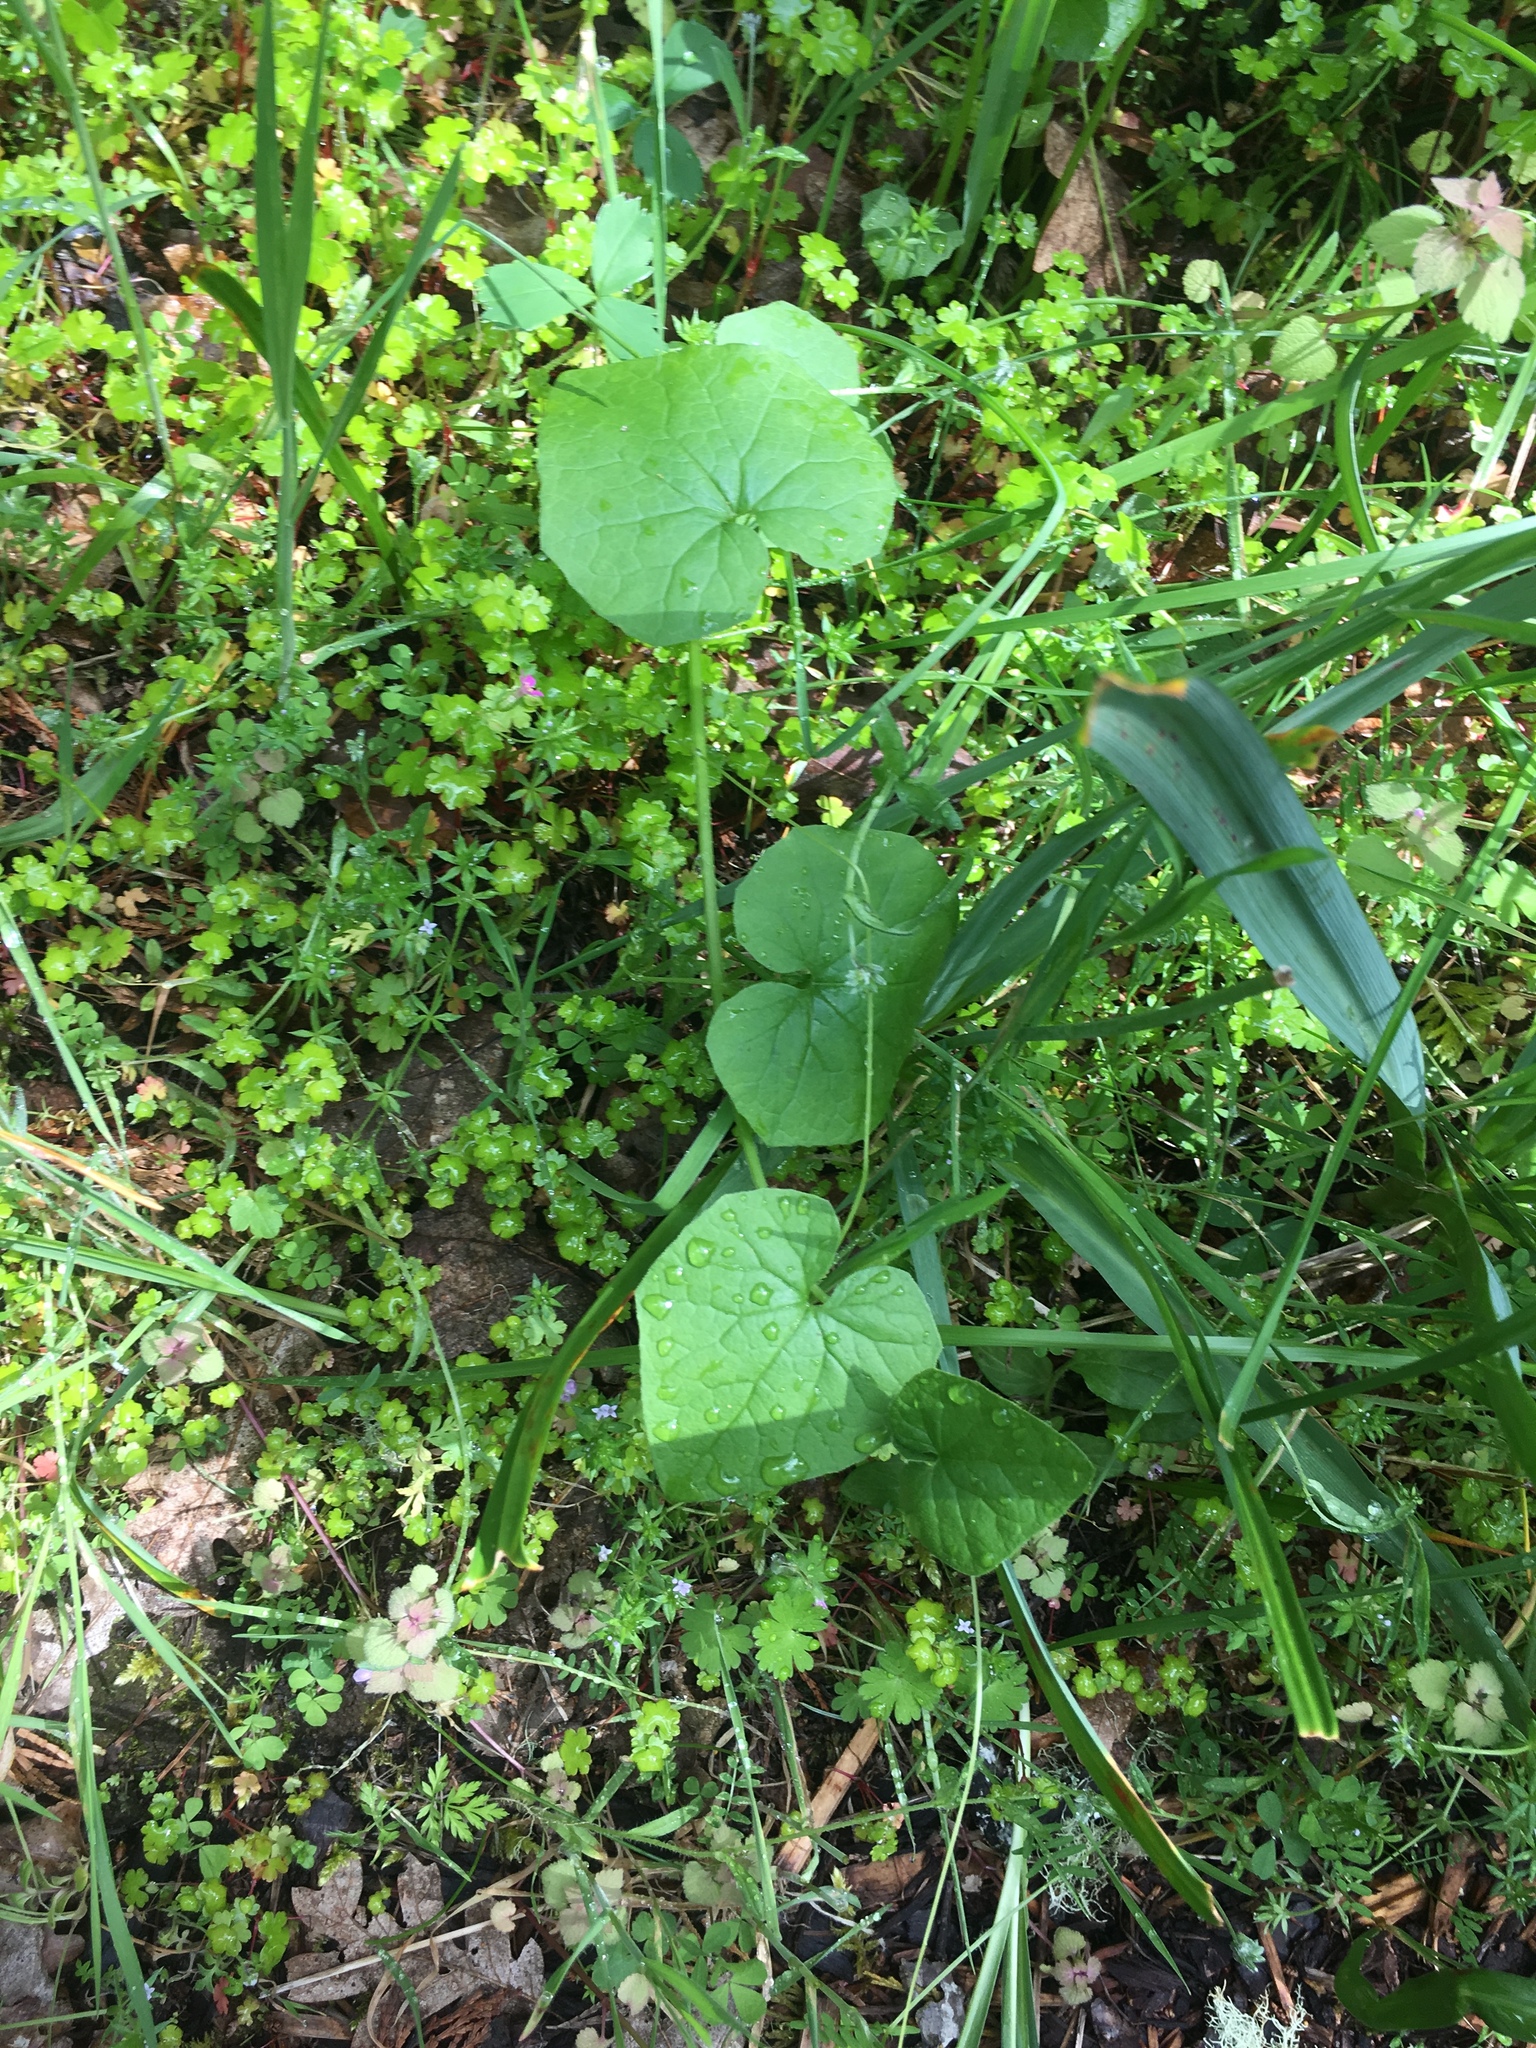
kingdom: Plantae
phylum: Tracheophyta
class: Magnoliopsida
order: Cucurbitales
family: Cucurbitaceae
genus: Marah
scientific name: Marah oregana
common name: Coastal manroot
